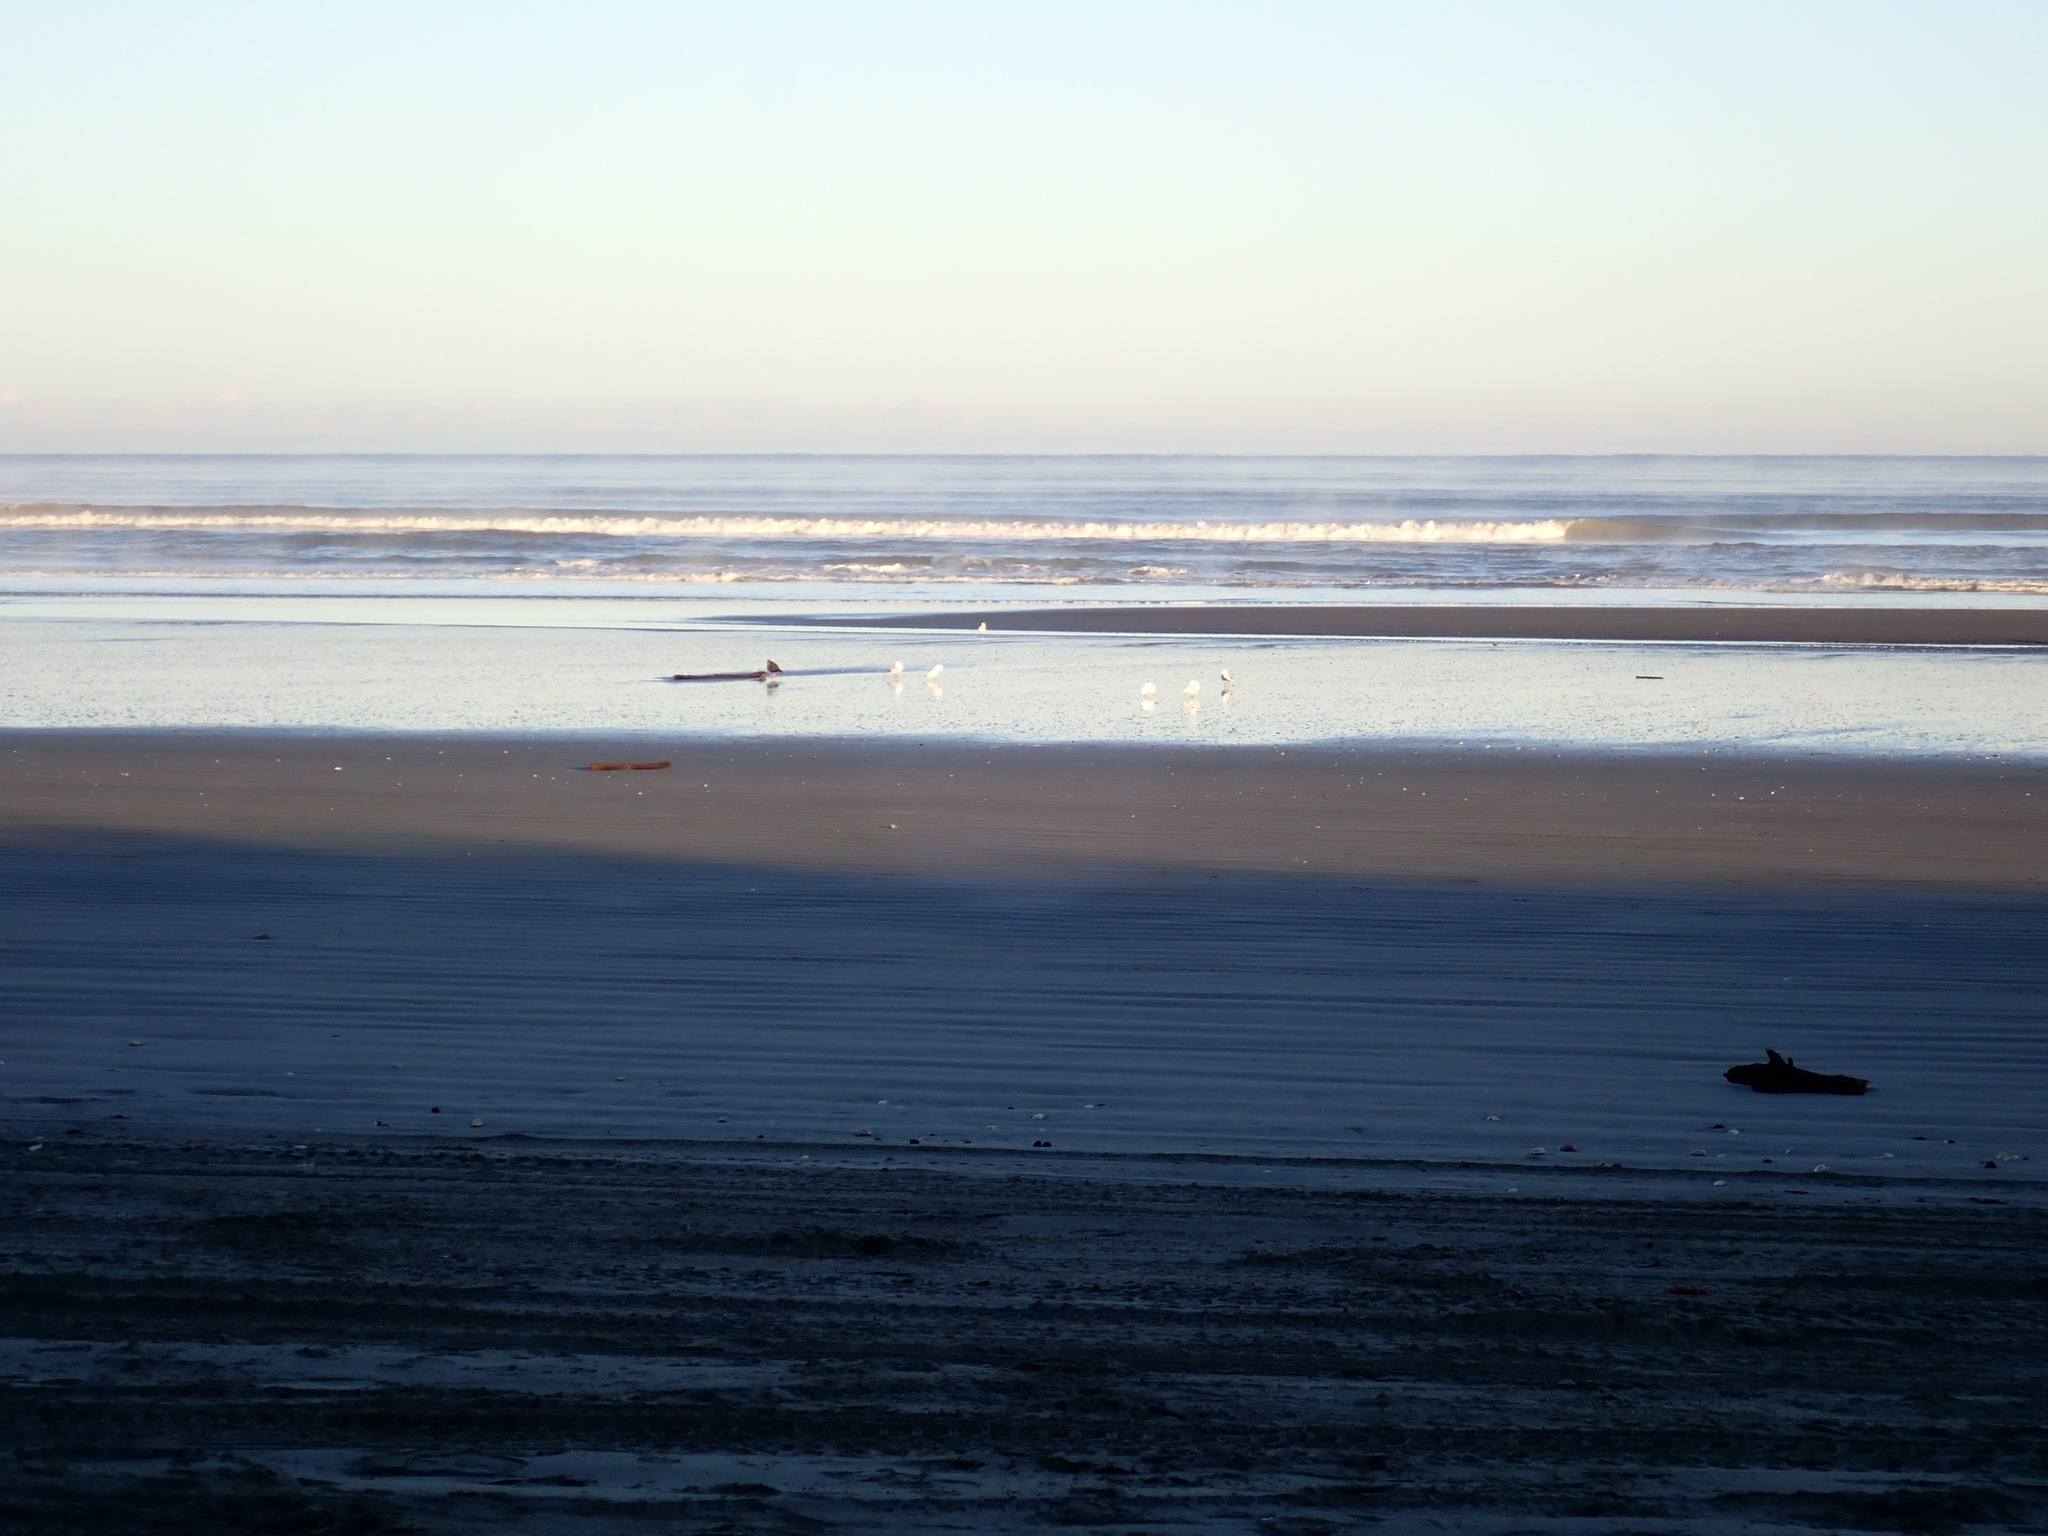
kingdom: Animalia
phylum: Chordata
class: Aves
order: Charadriiformes
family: Haematopodidae
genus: Haematopus
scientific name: Haematopus unicolor
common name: Variable oystercatcher
